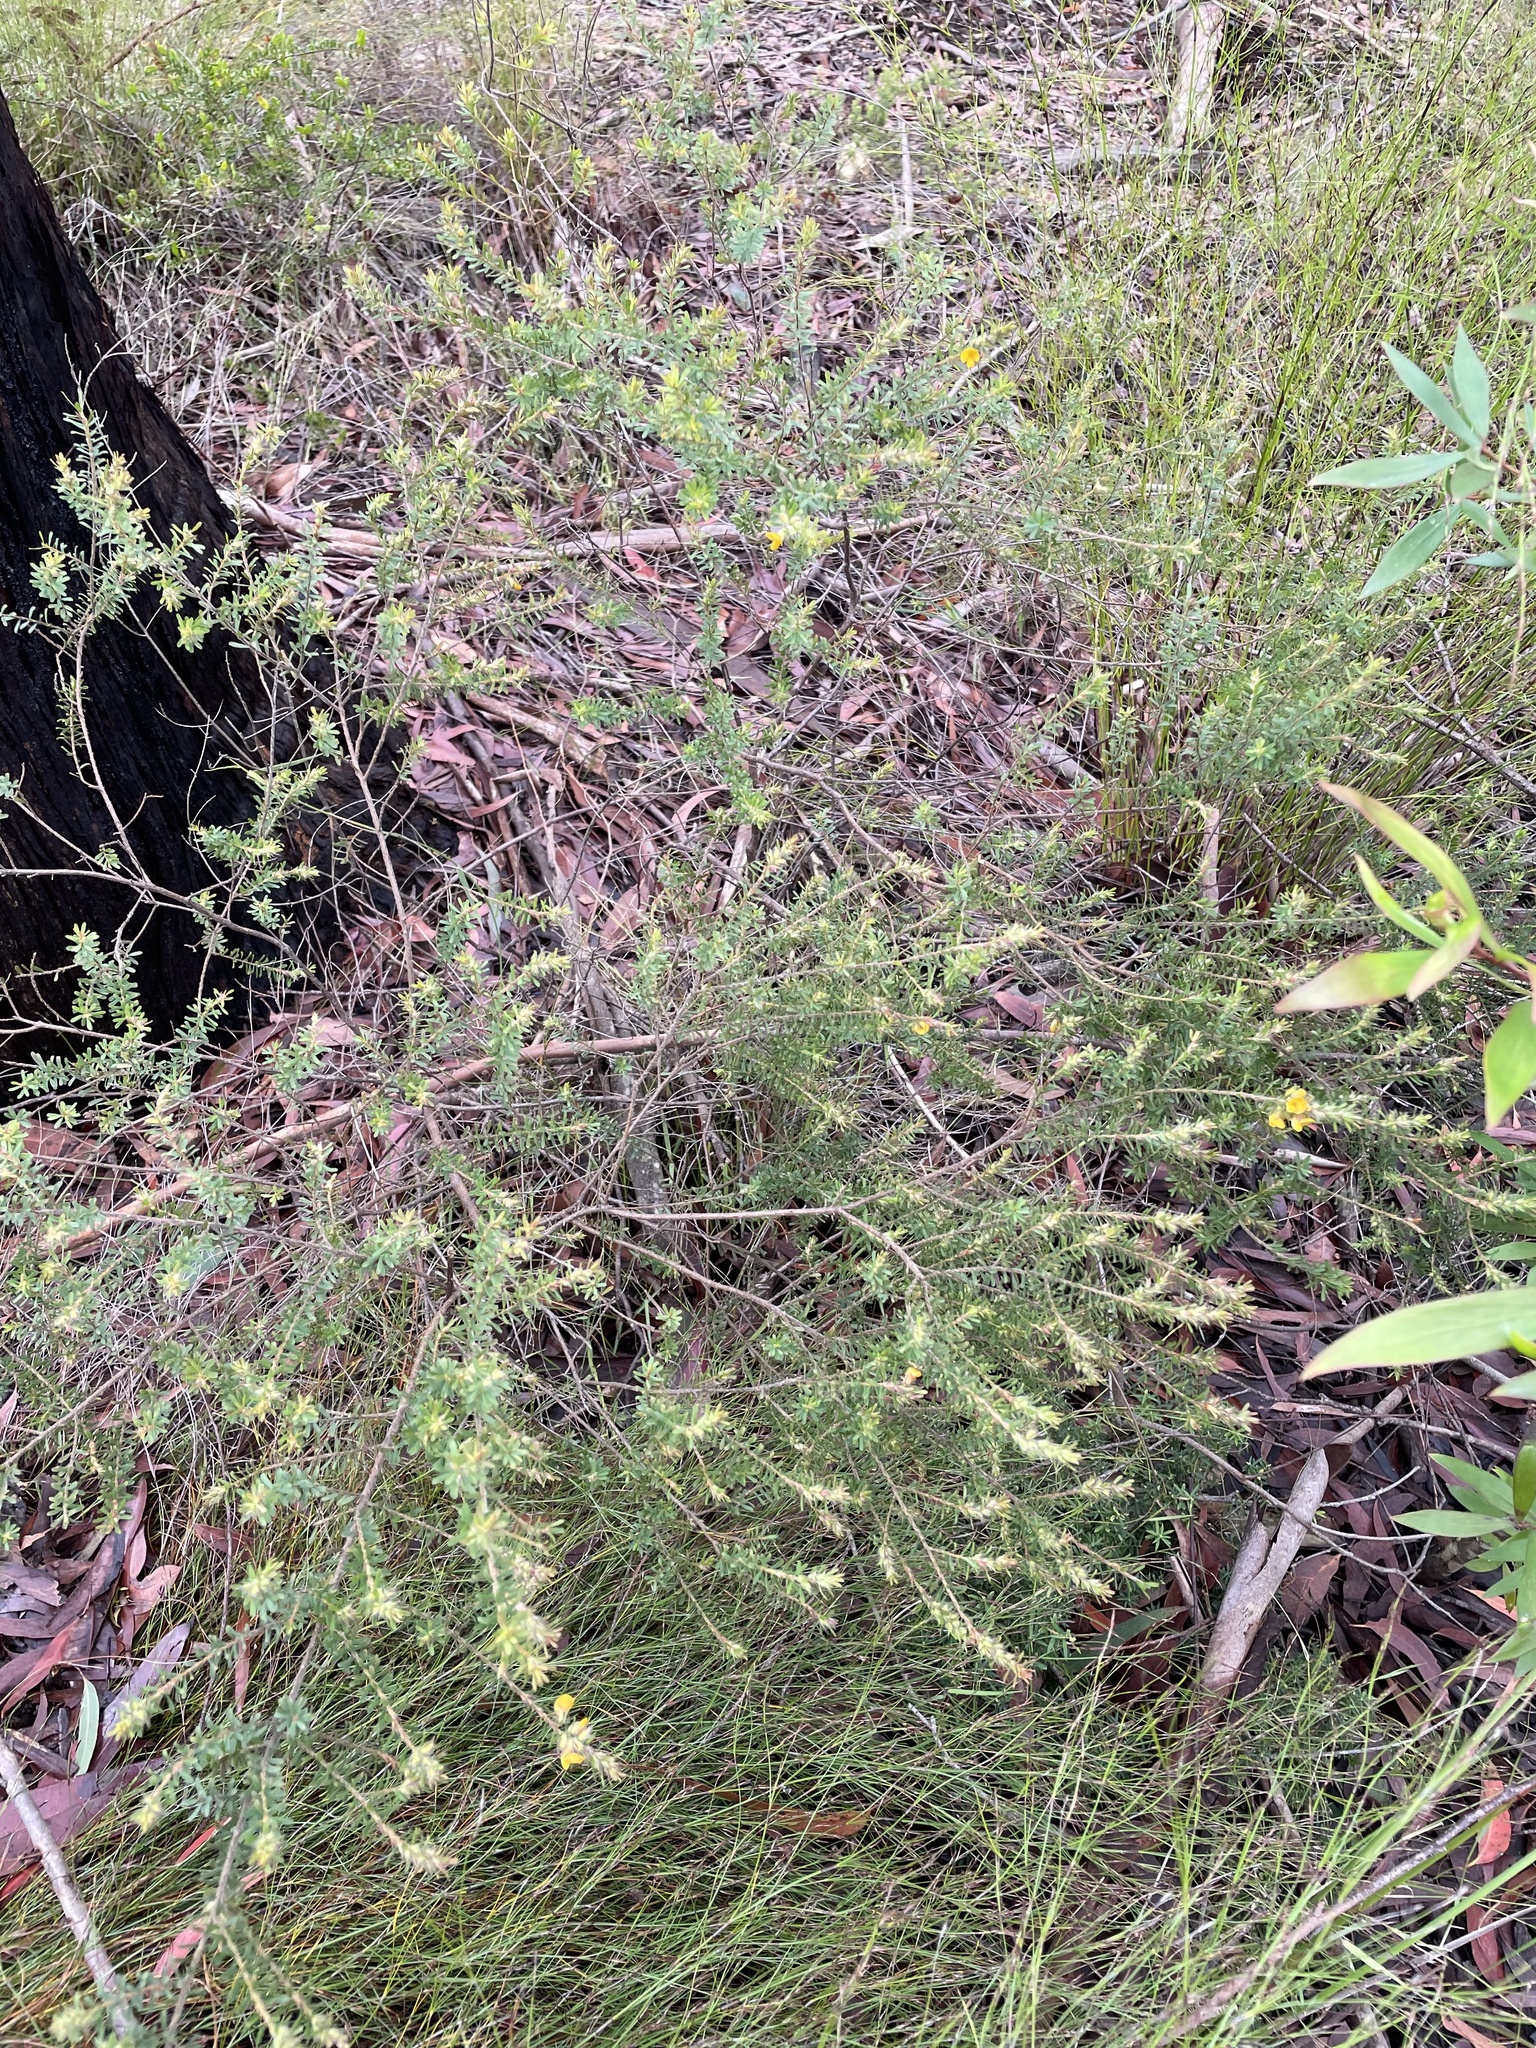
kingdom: Plantae
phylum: Tracheophyta
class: Magnoliopsida
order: Fabales
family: Fabaceae
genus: Pultenaea
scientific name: Pultenaea villosa
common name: Bronze bush-pea
